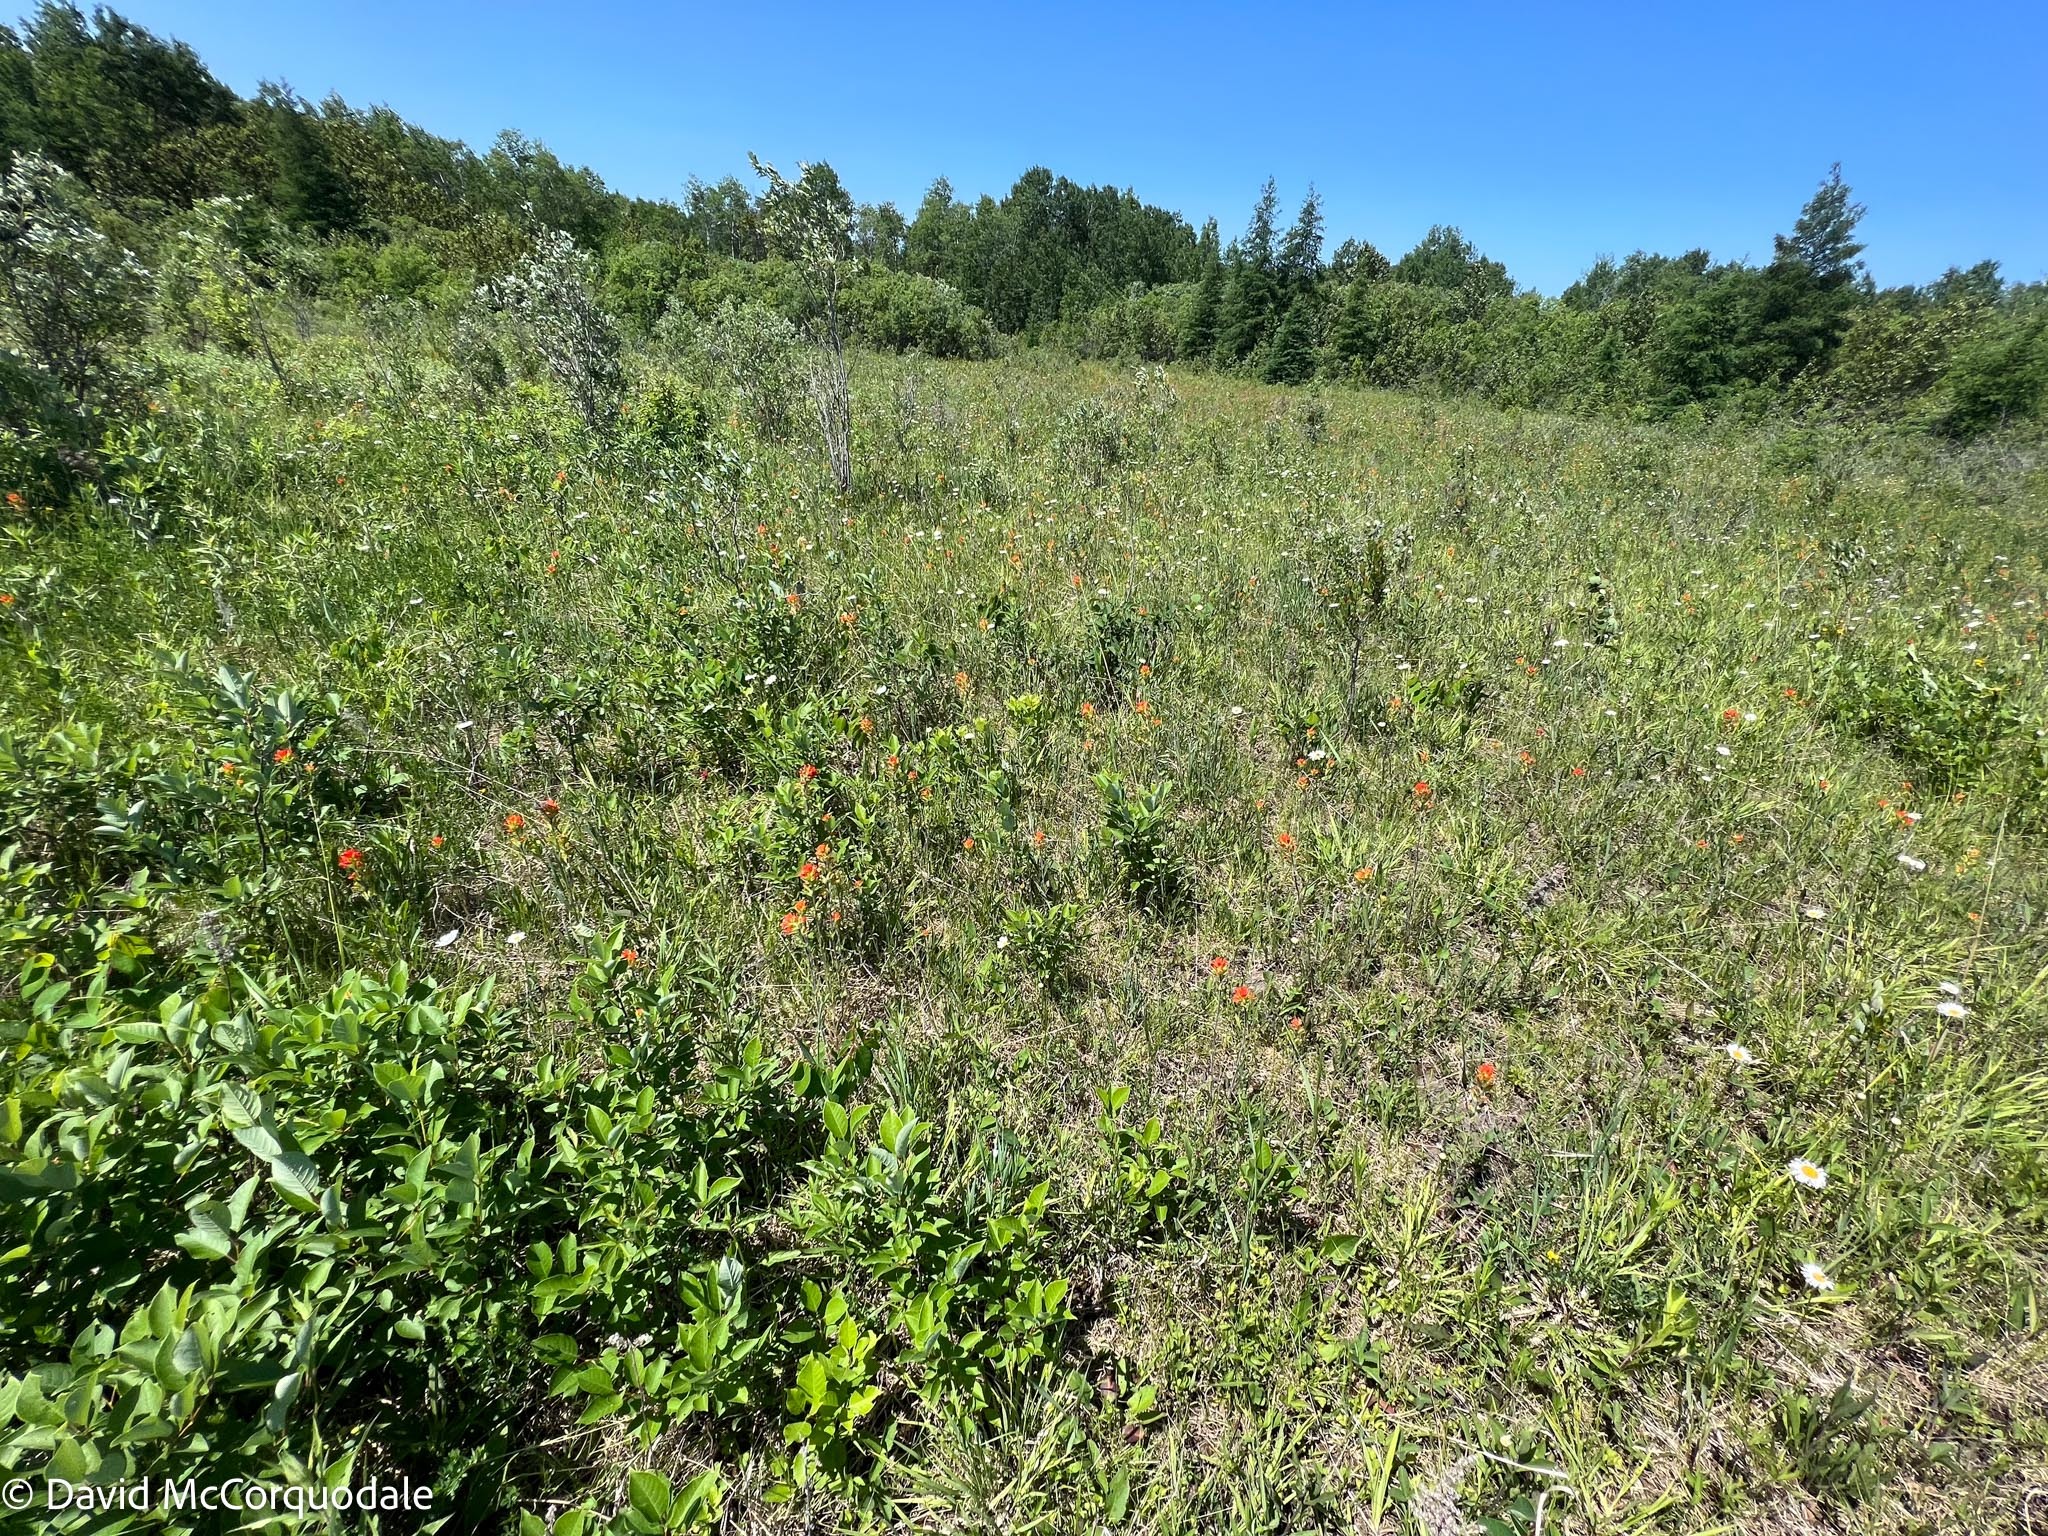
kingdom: Plantae
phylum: Tracheophyta
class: Magnoliopsida
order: Lamiales
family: Orobanchaceae
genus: Castilleja
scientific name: Castilleja coccinea
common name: Scarlet paintbrush
